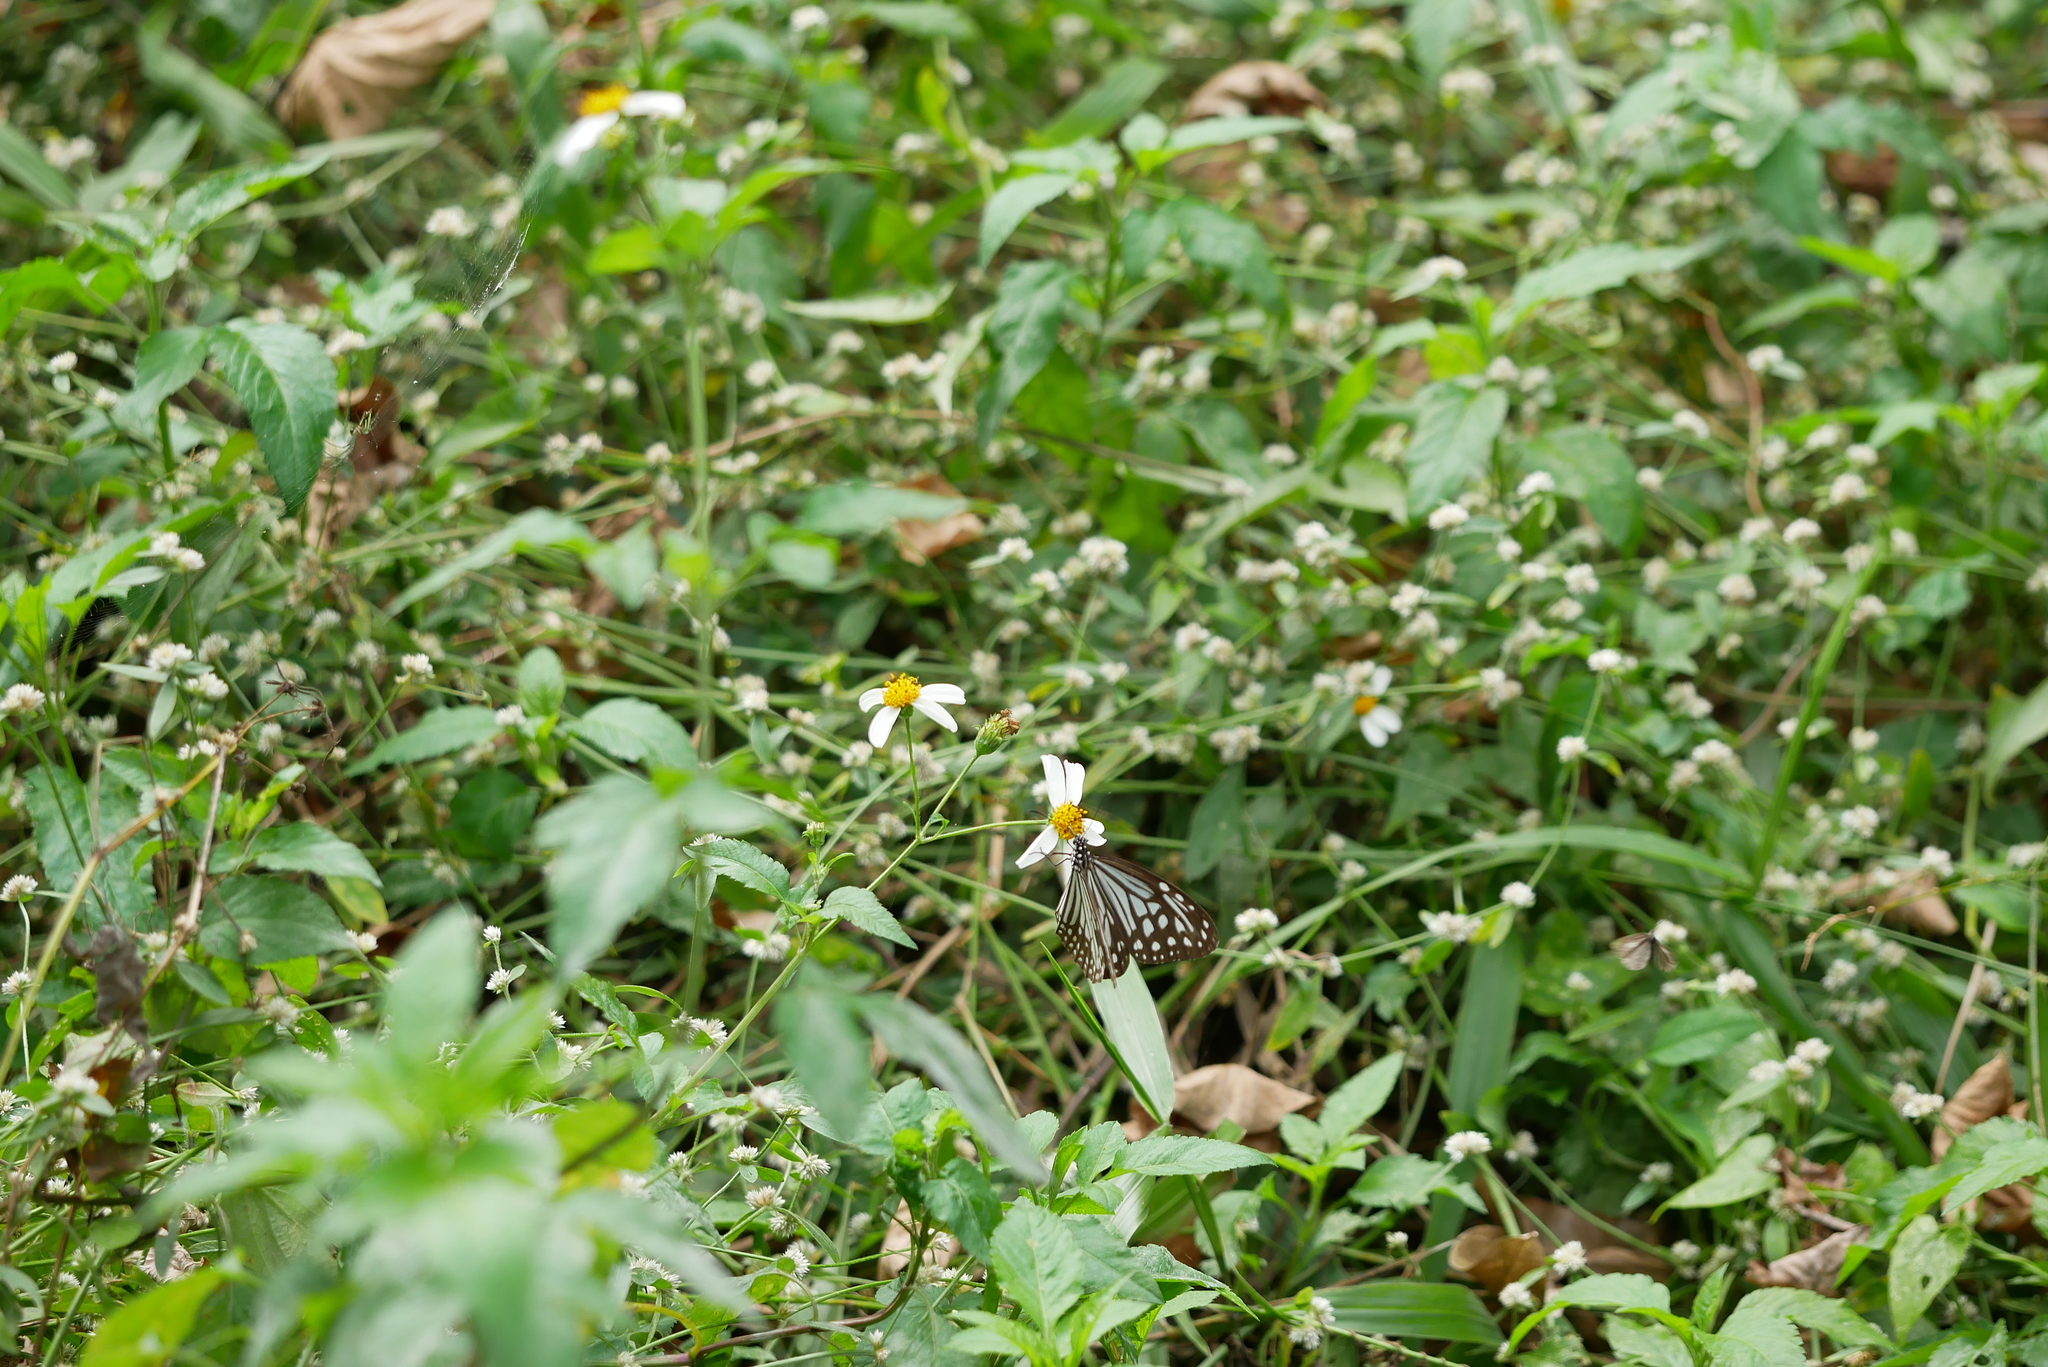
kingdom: Animalia
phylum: Arthropoda
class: Insecta
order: Lepidoptera
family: Nymphalidae
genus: Parantica
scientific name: Parantica aglea
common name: Glassy tiger
